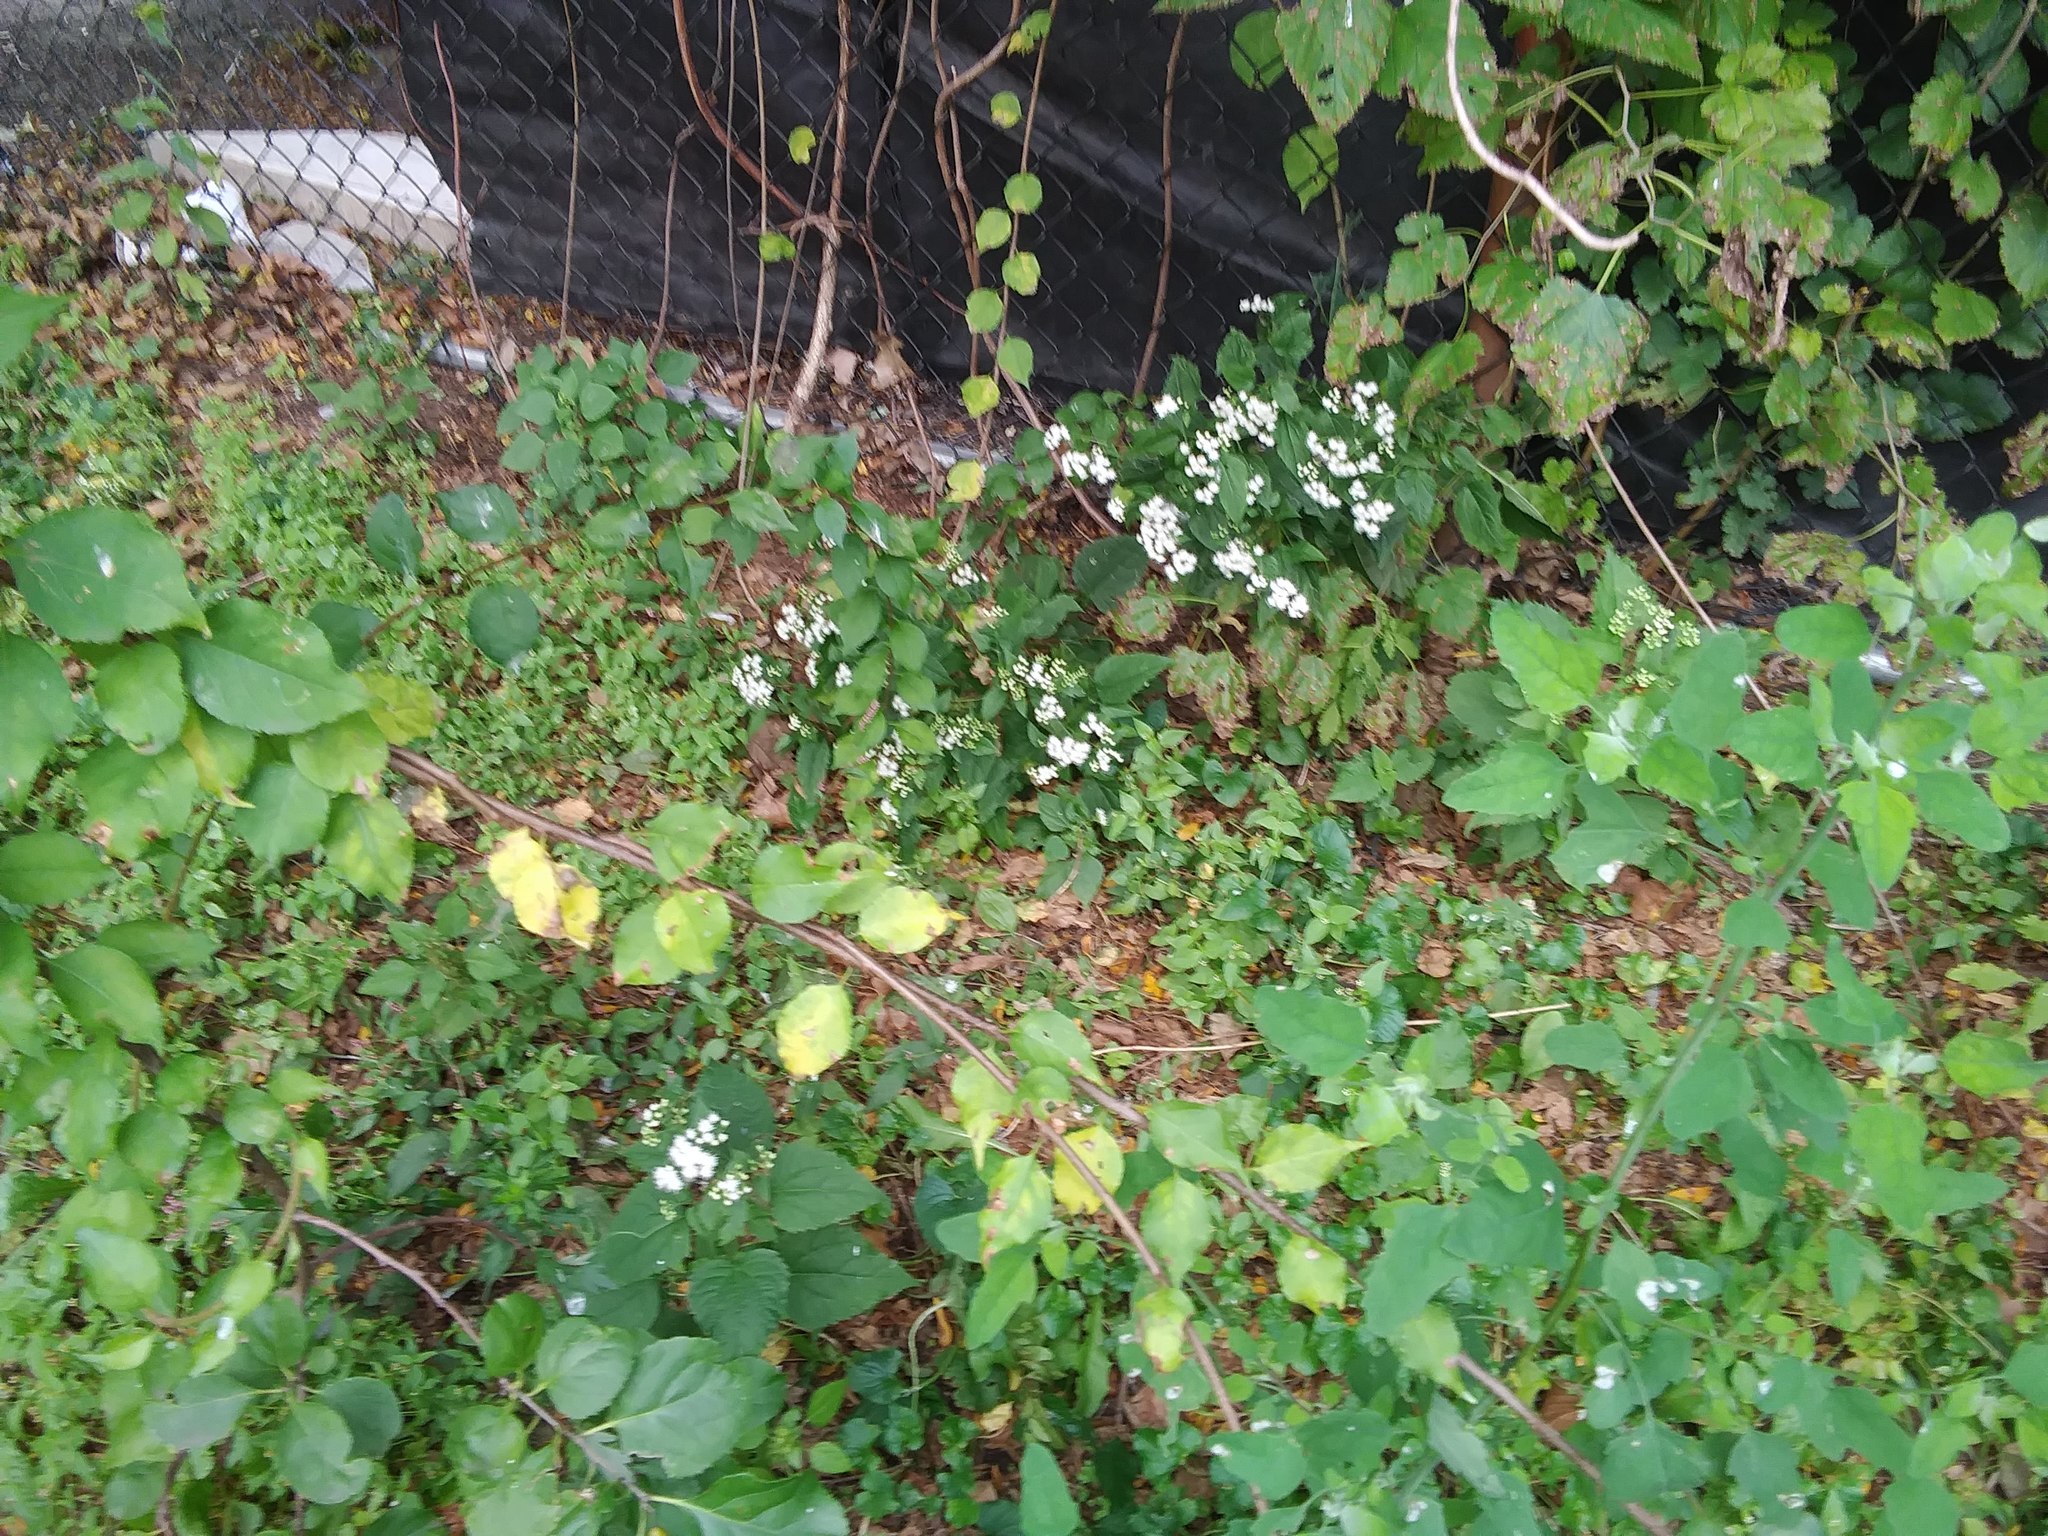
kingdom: Plantae
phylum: Tracheophyta
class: Magnoliopsida
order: Asterales
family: Asteraceae
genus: Ageratina
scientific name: Ageratina altissima
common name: White snakeroot
